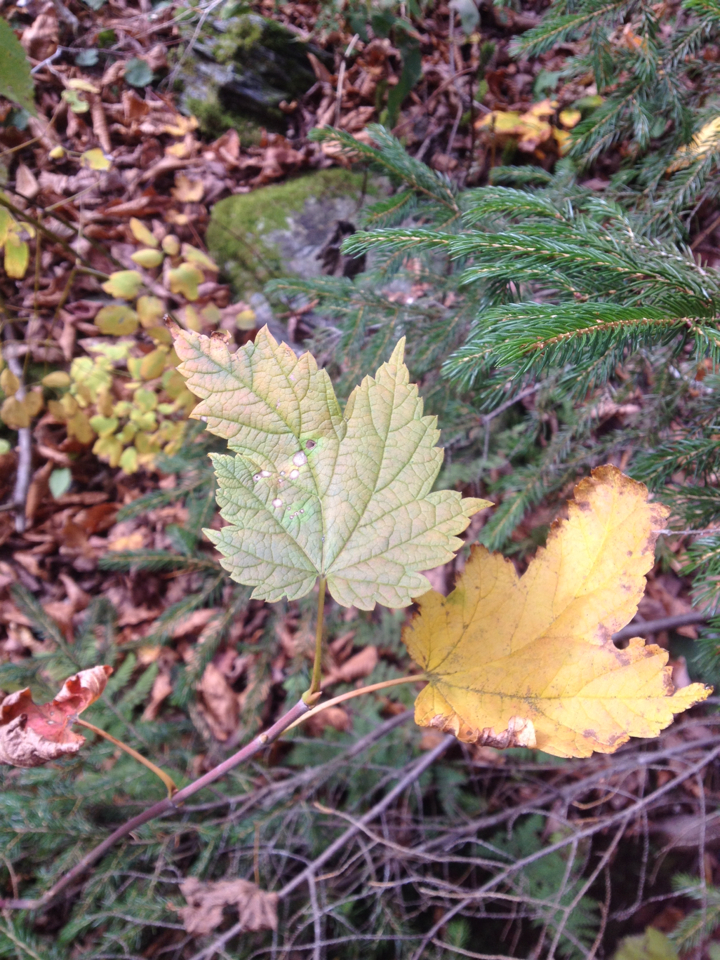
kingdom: Plantae
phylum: Tracheophyta
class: Magnoliopsida
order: Sapindales
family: Sapindaceae
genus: Acer
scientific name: Acer spicatum
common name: Mountain maple
